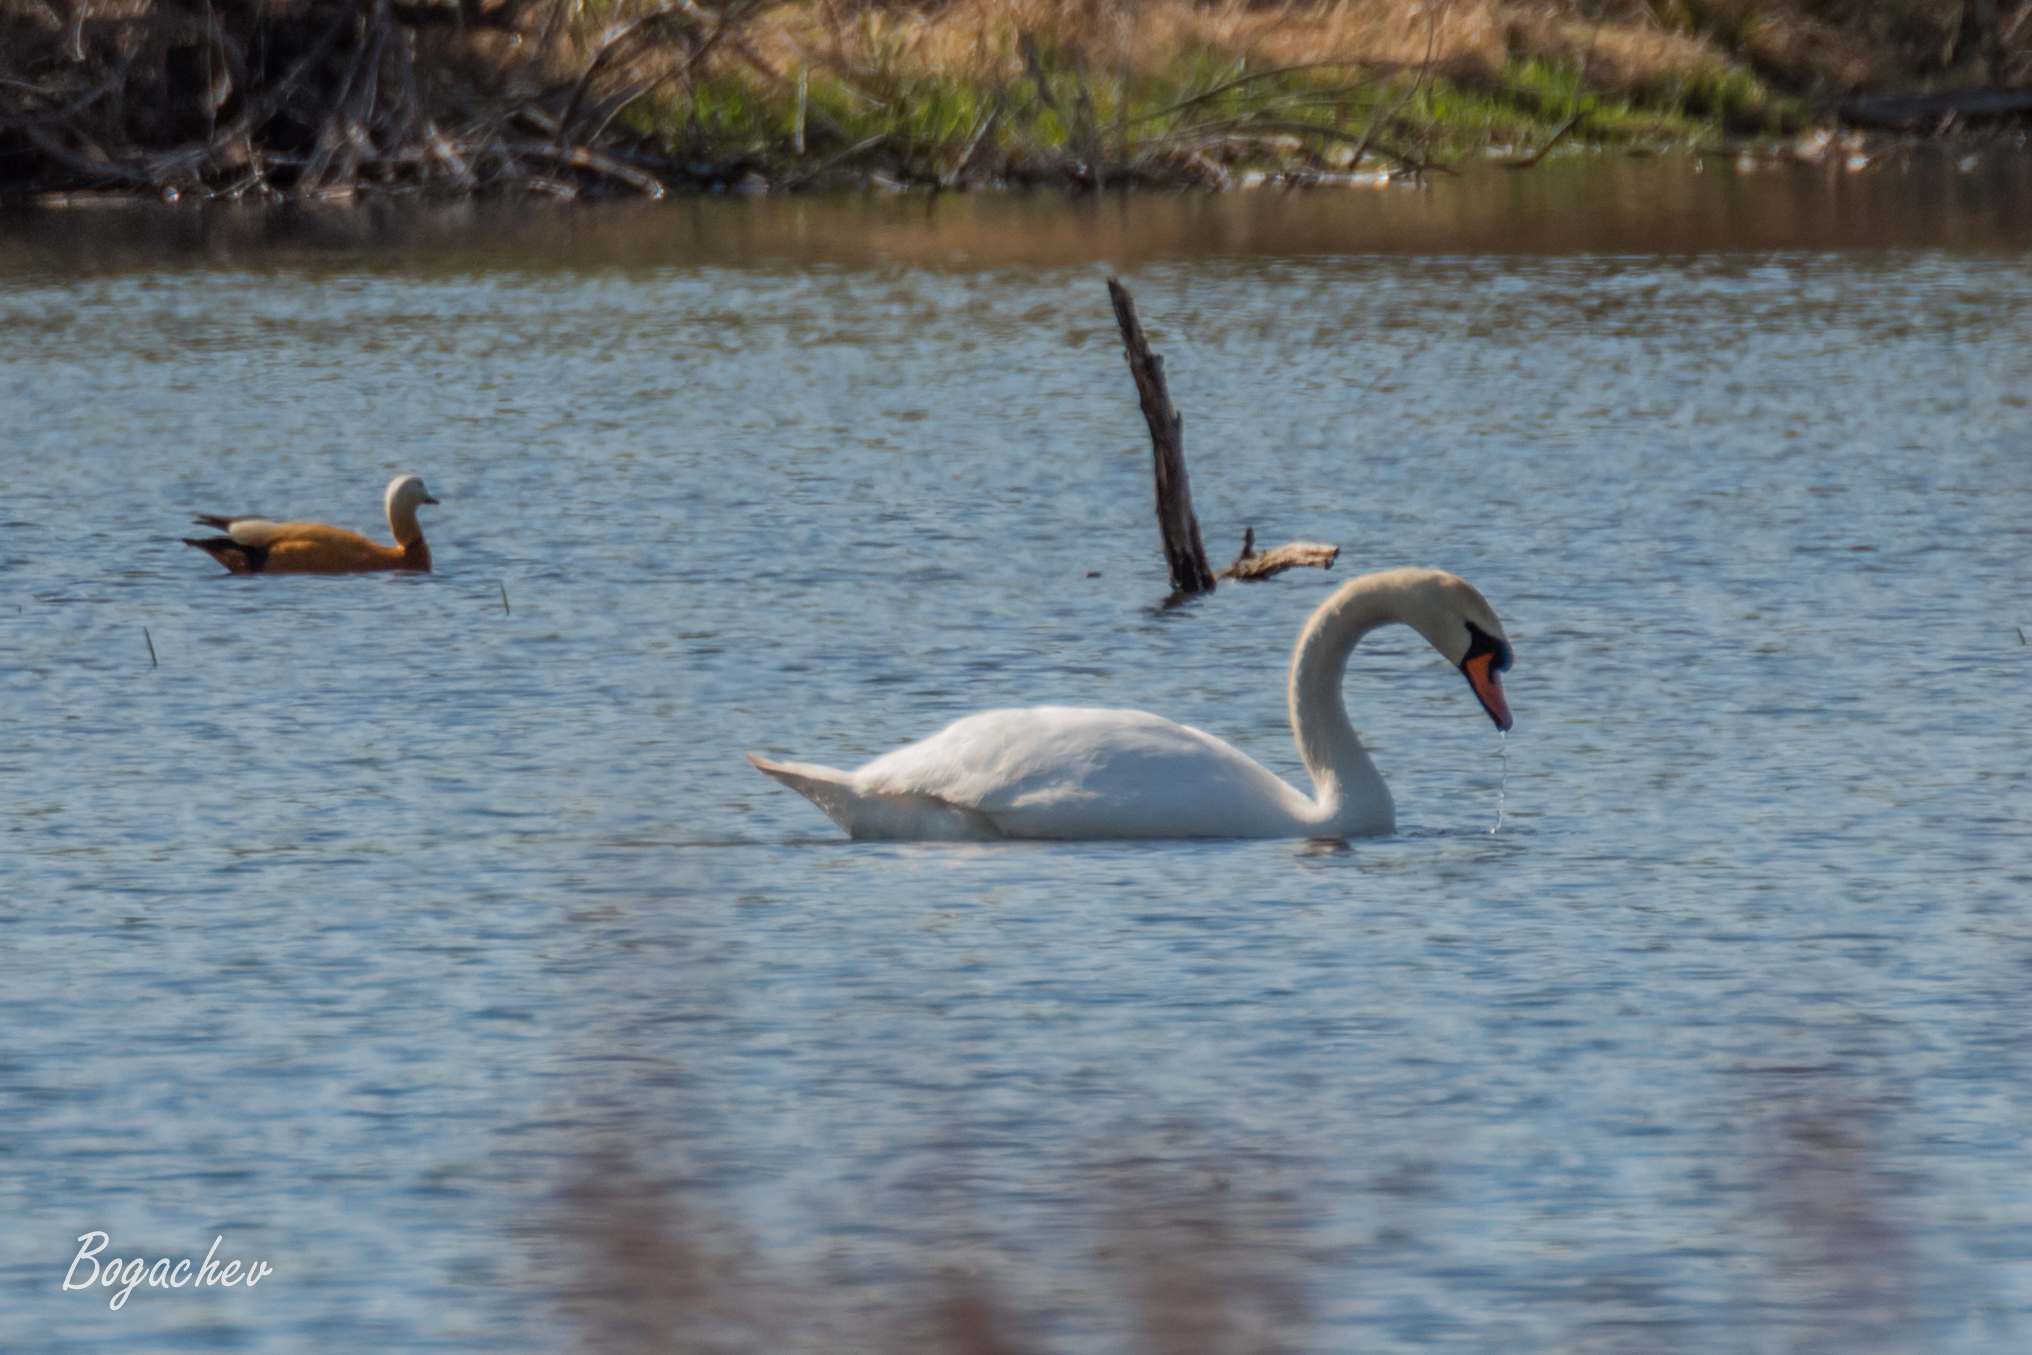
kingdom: Animalia
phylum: Chordata
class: Aves
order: Anseriformes
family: Anatidae
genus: Cygnus
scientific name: Cygnus olor
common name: Mute swan
